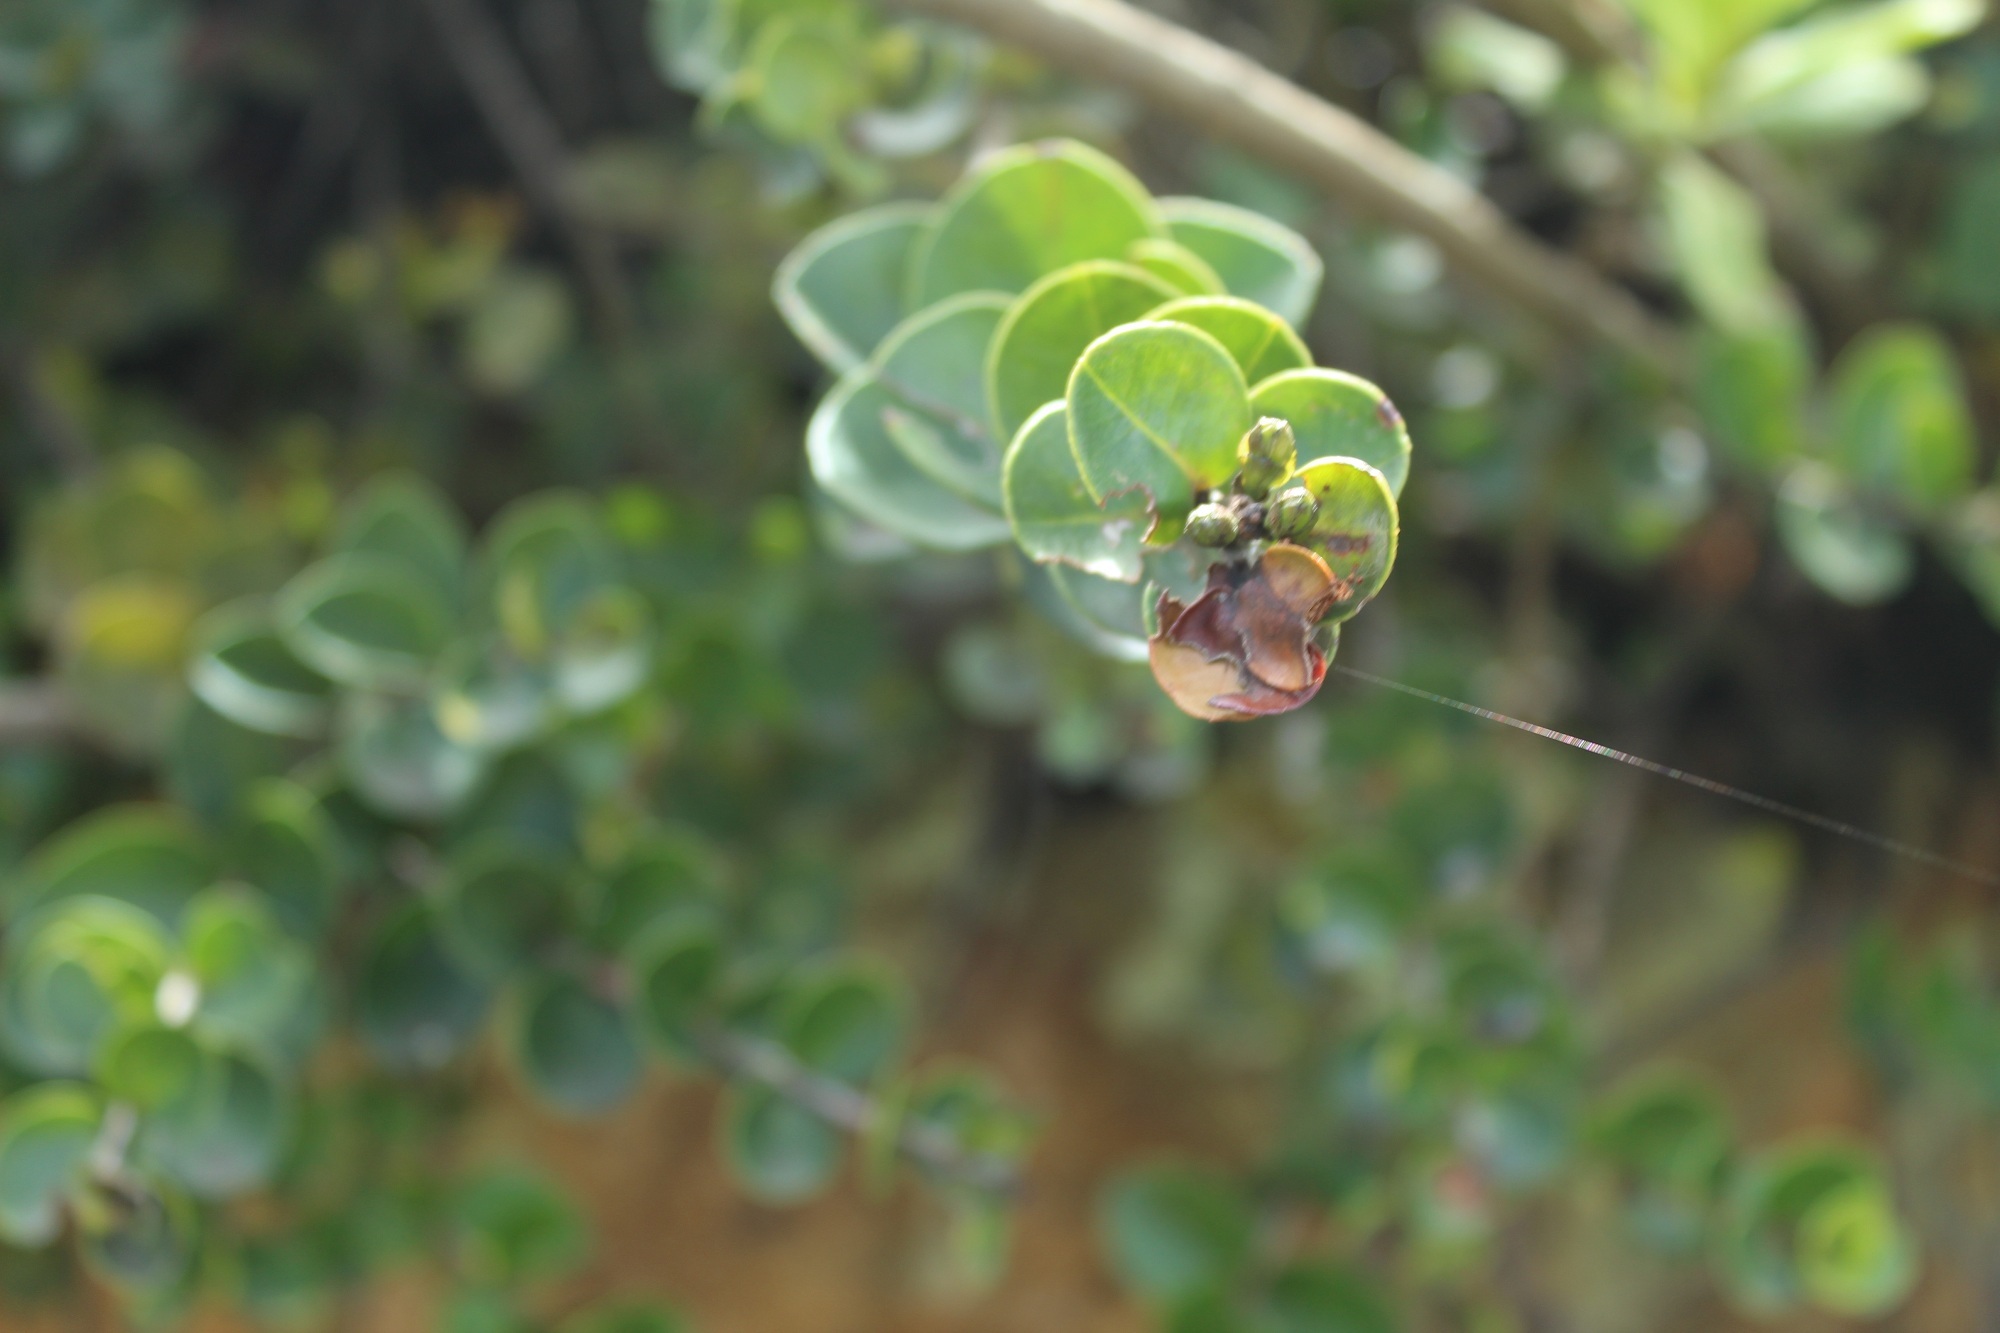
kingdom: Plantae
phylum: Tracheophyta
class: Magnoliopsida
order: Myrtales
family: Myrtaceae
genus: Myrcianthes
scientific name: Myrcianthes leucoxyla
